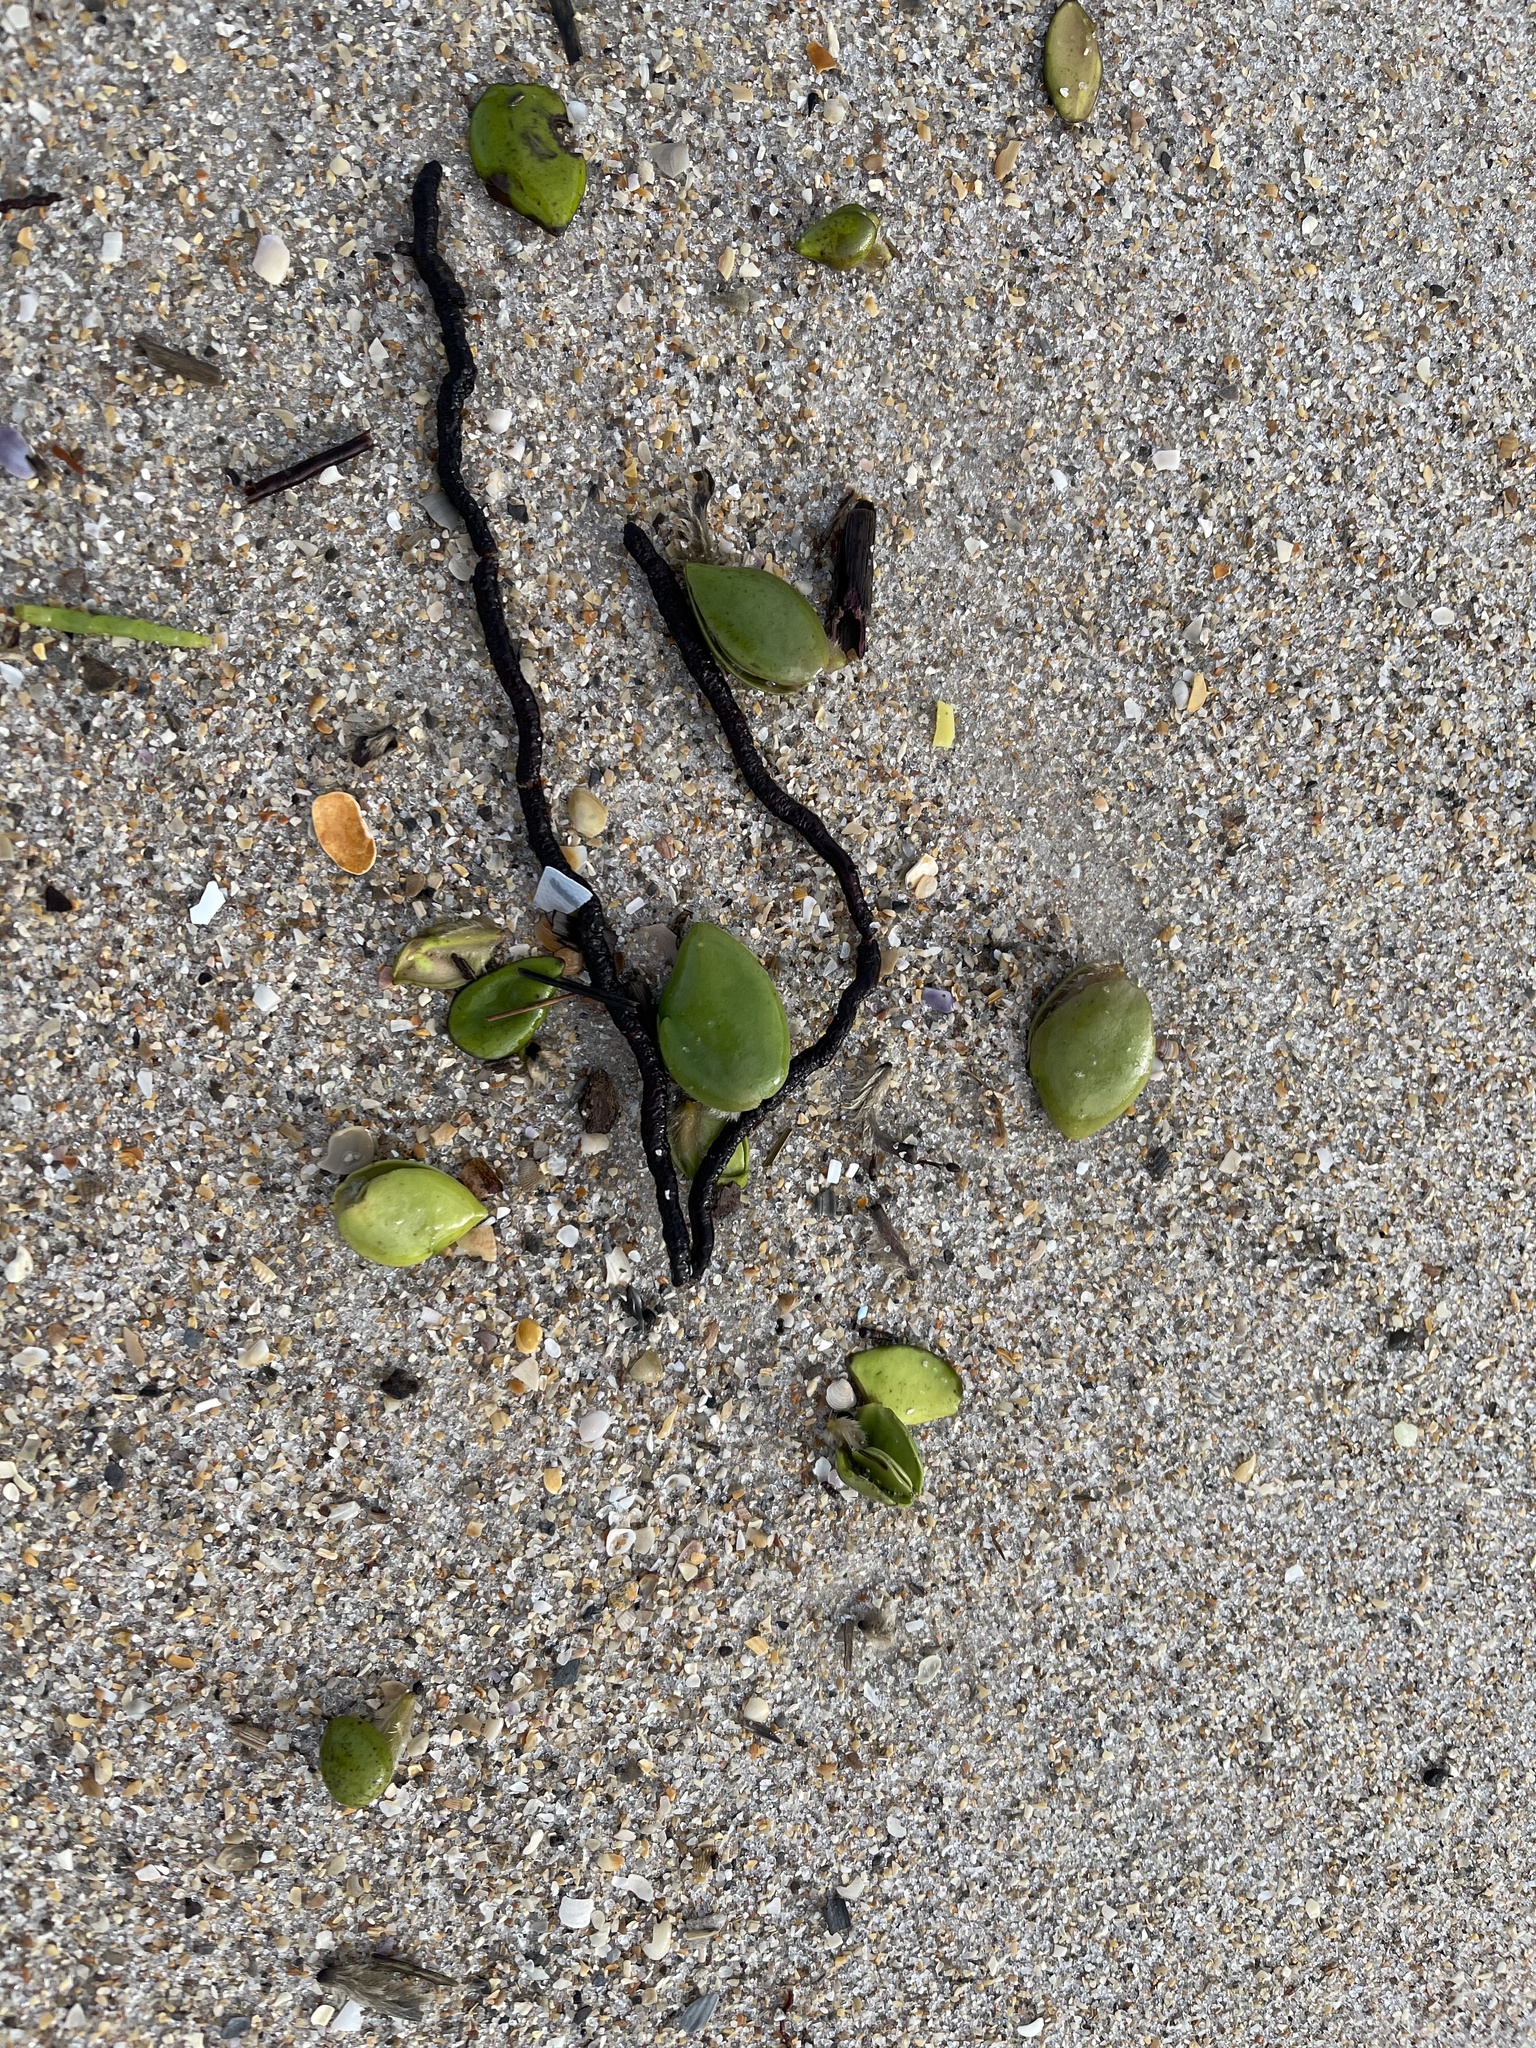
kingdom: Plantae
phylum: Tracheophyta
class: Magnoliopsida
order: Lamiales
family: Acanthaceae
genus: Avicennia
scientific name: Avicennia germinans
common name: Black mangrove
